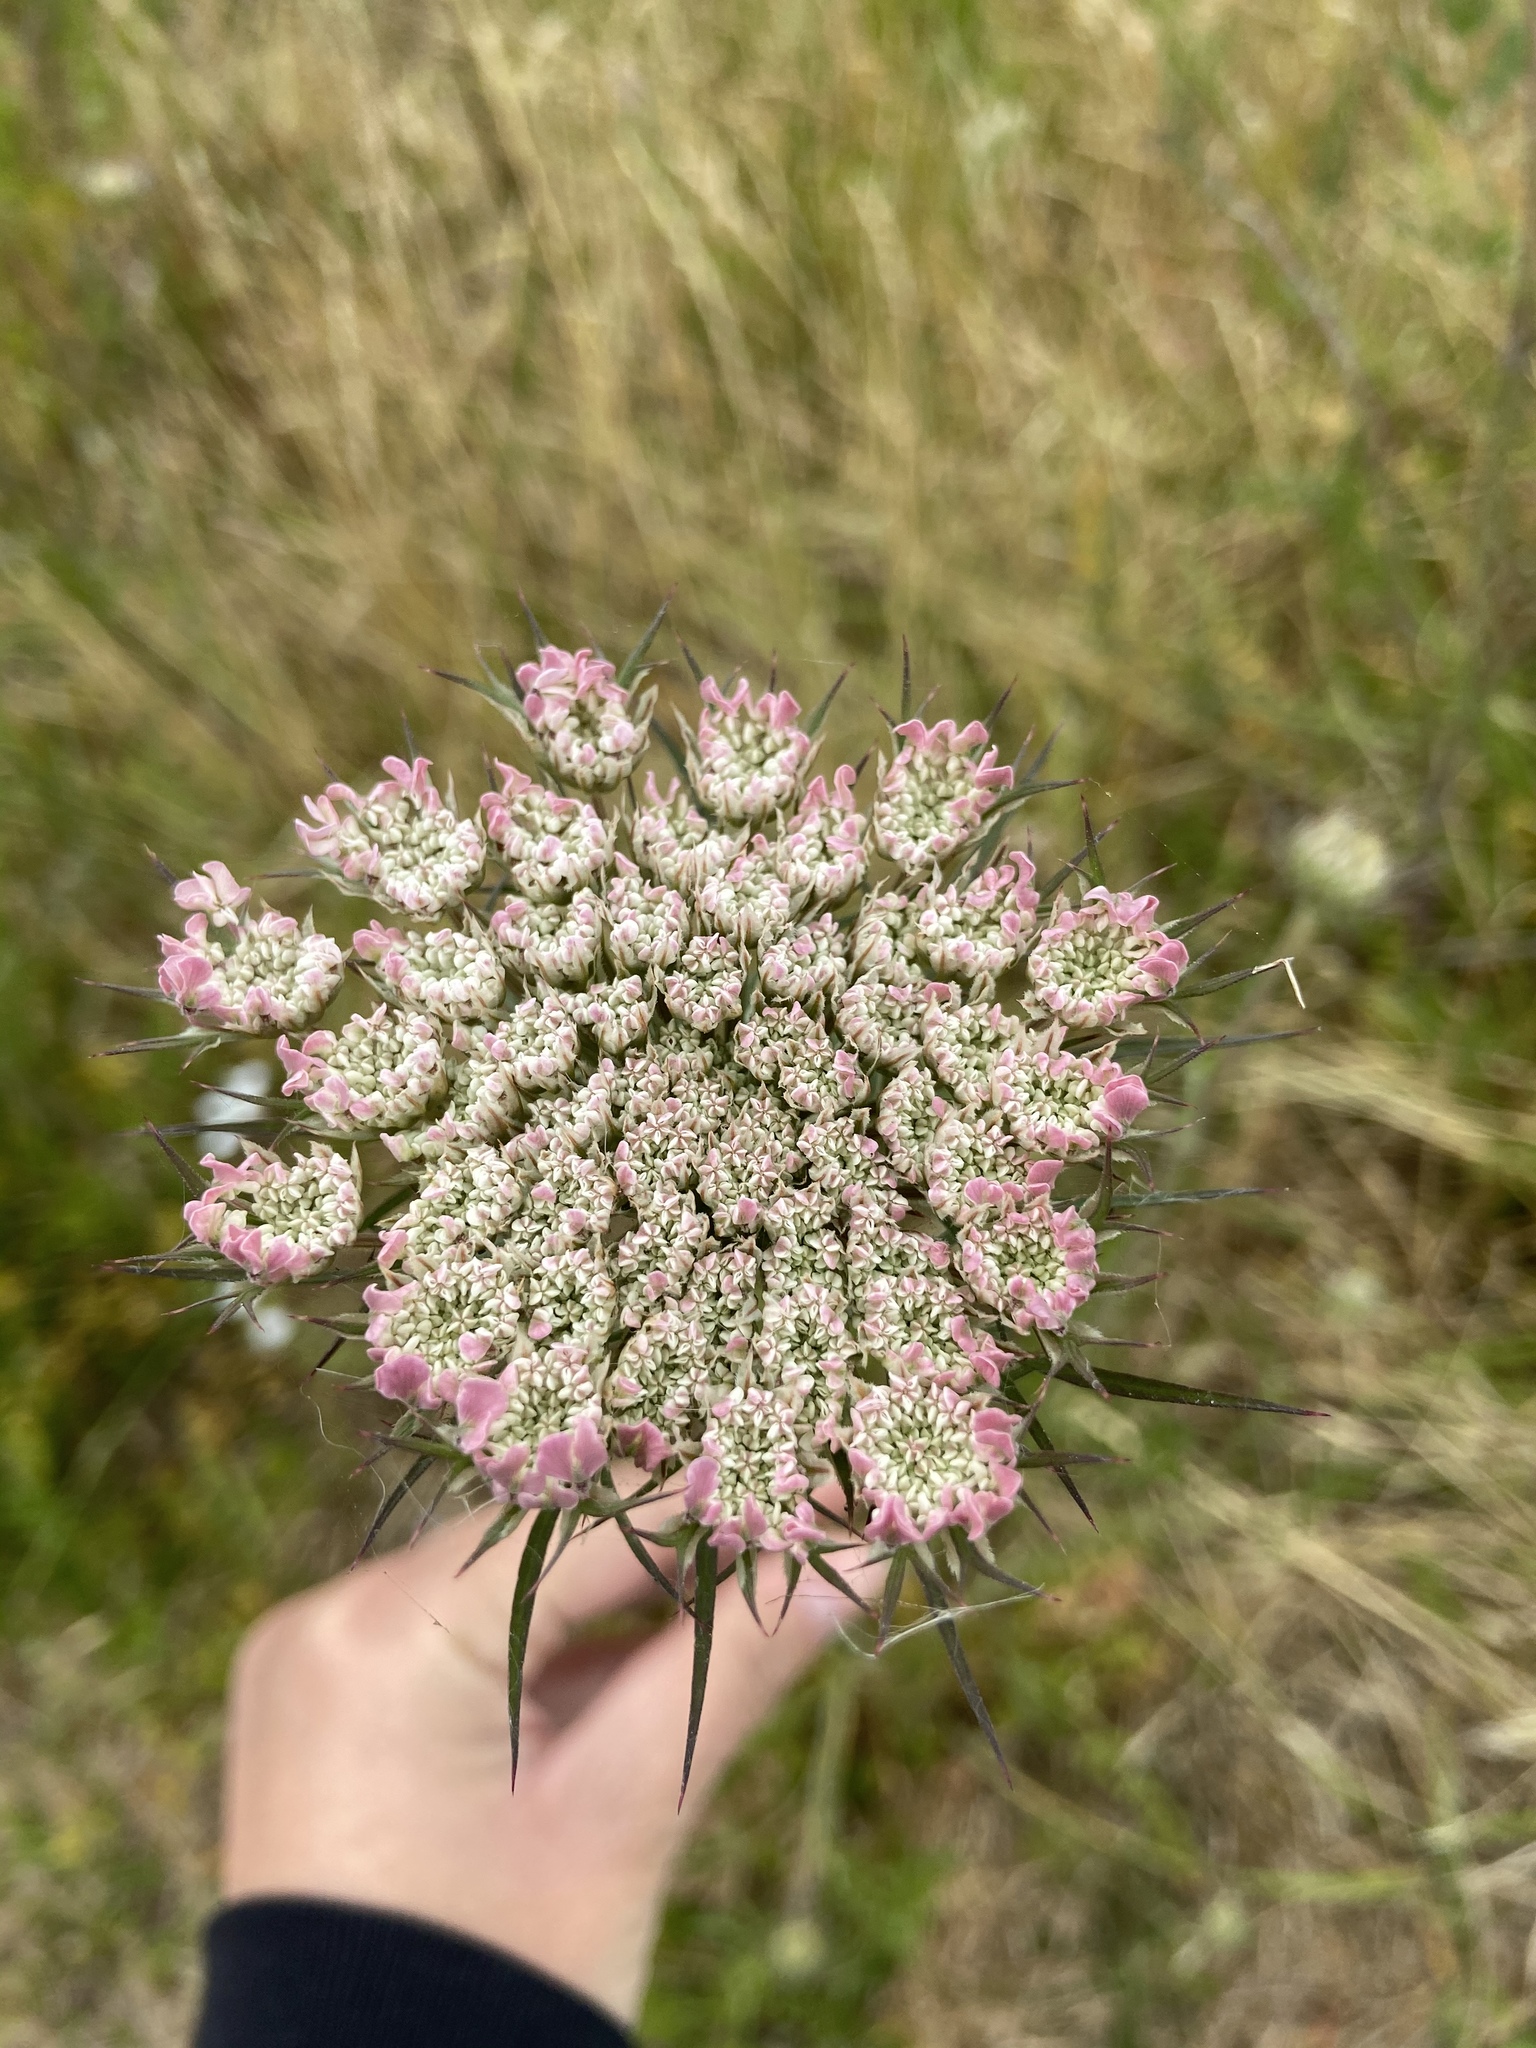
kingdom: Plantae
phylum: Tracheophyta
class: Magnoliopsida
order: Apiales
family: Apiaceae
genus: Daucus
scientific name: Daucus carota
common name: Wild carrot
